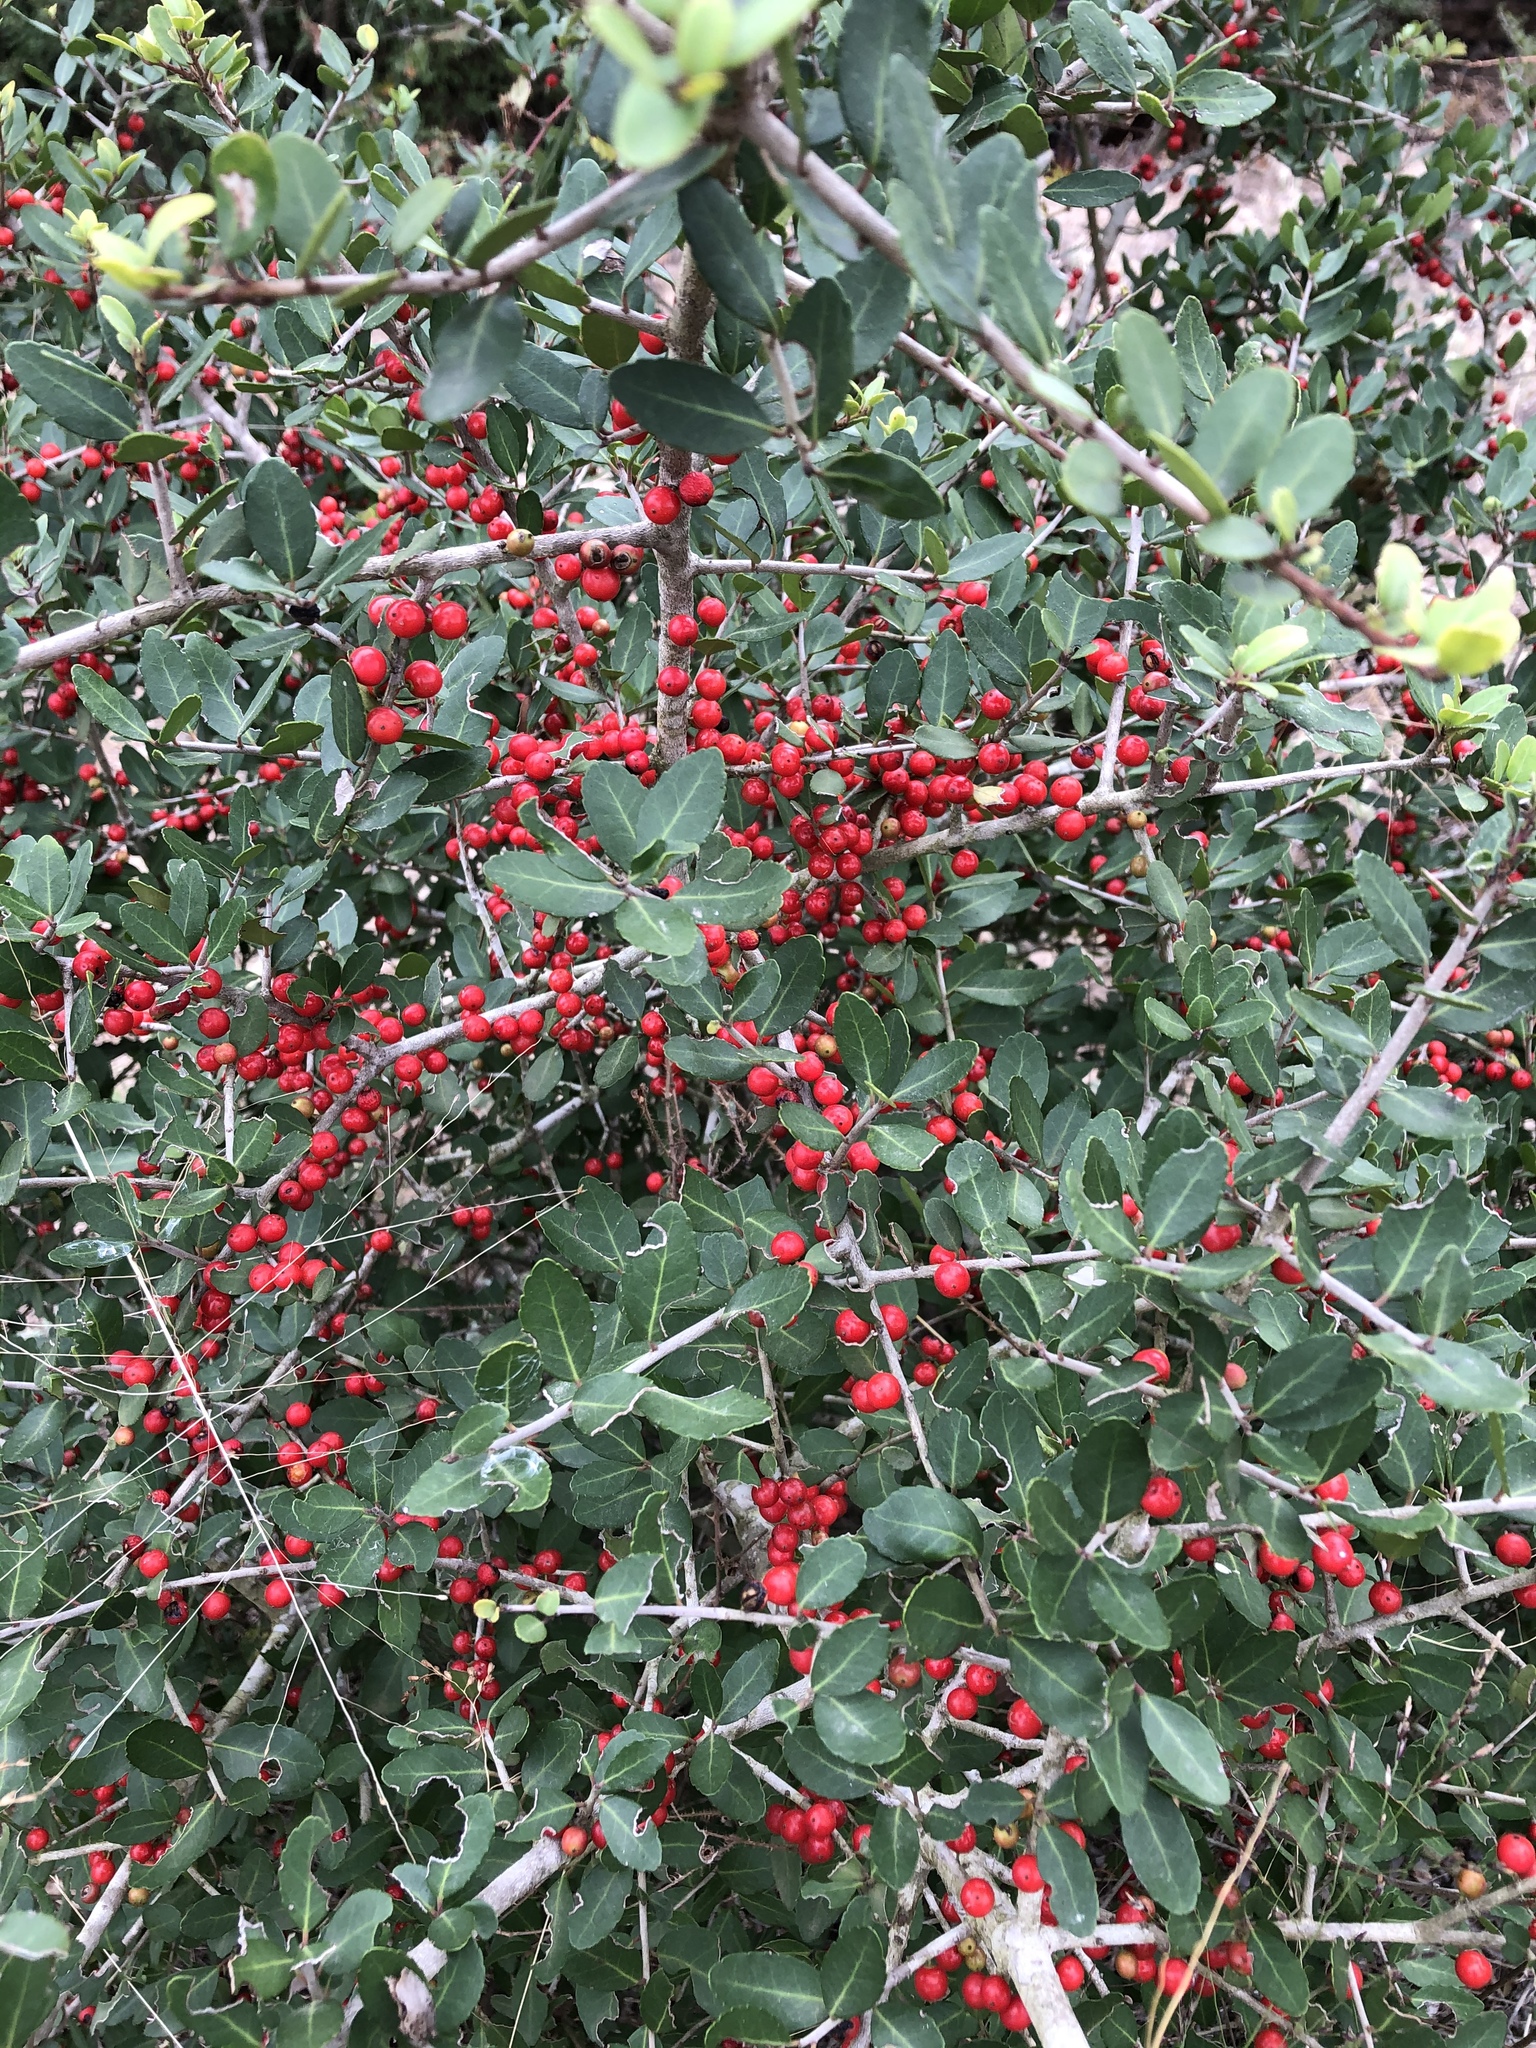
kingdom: Plantae
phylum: Tracheophyta
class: Magnoliopsida
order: Aquifoliales
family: Aquifoliaceae
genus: Ilex
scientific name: Ilex vomitoria
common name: Yaupon holly
